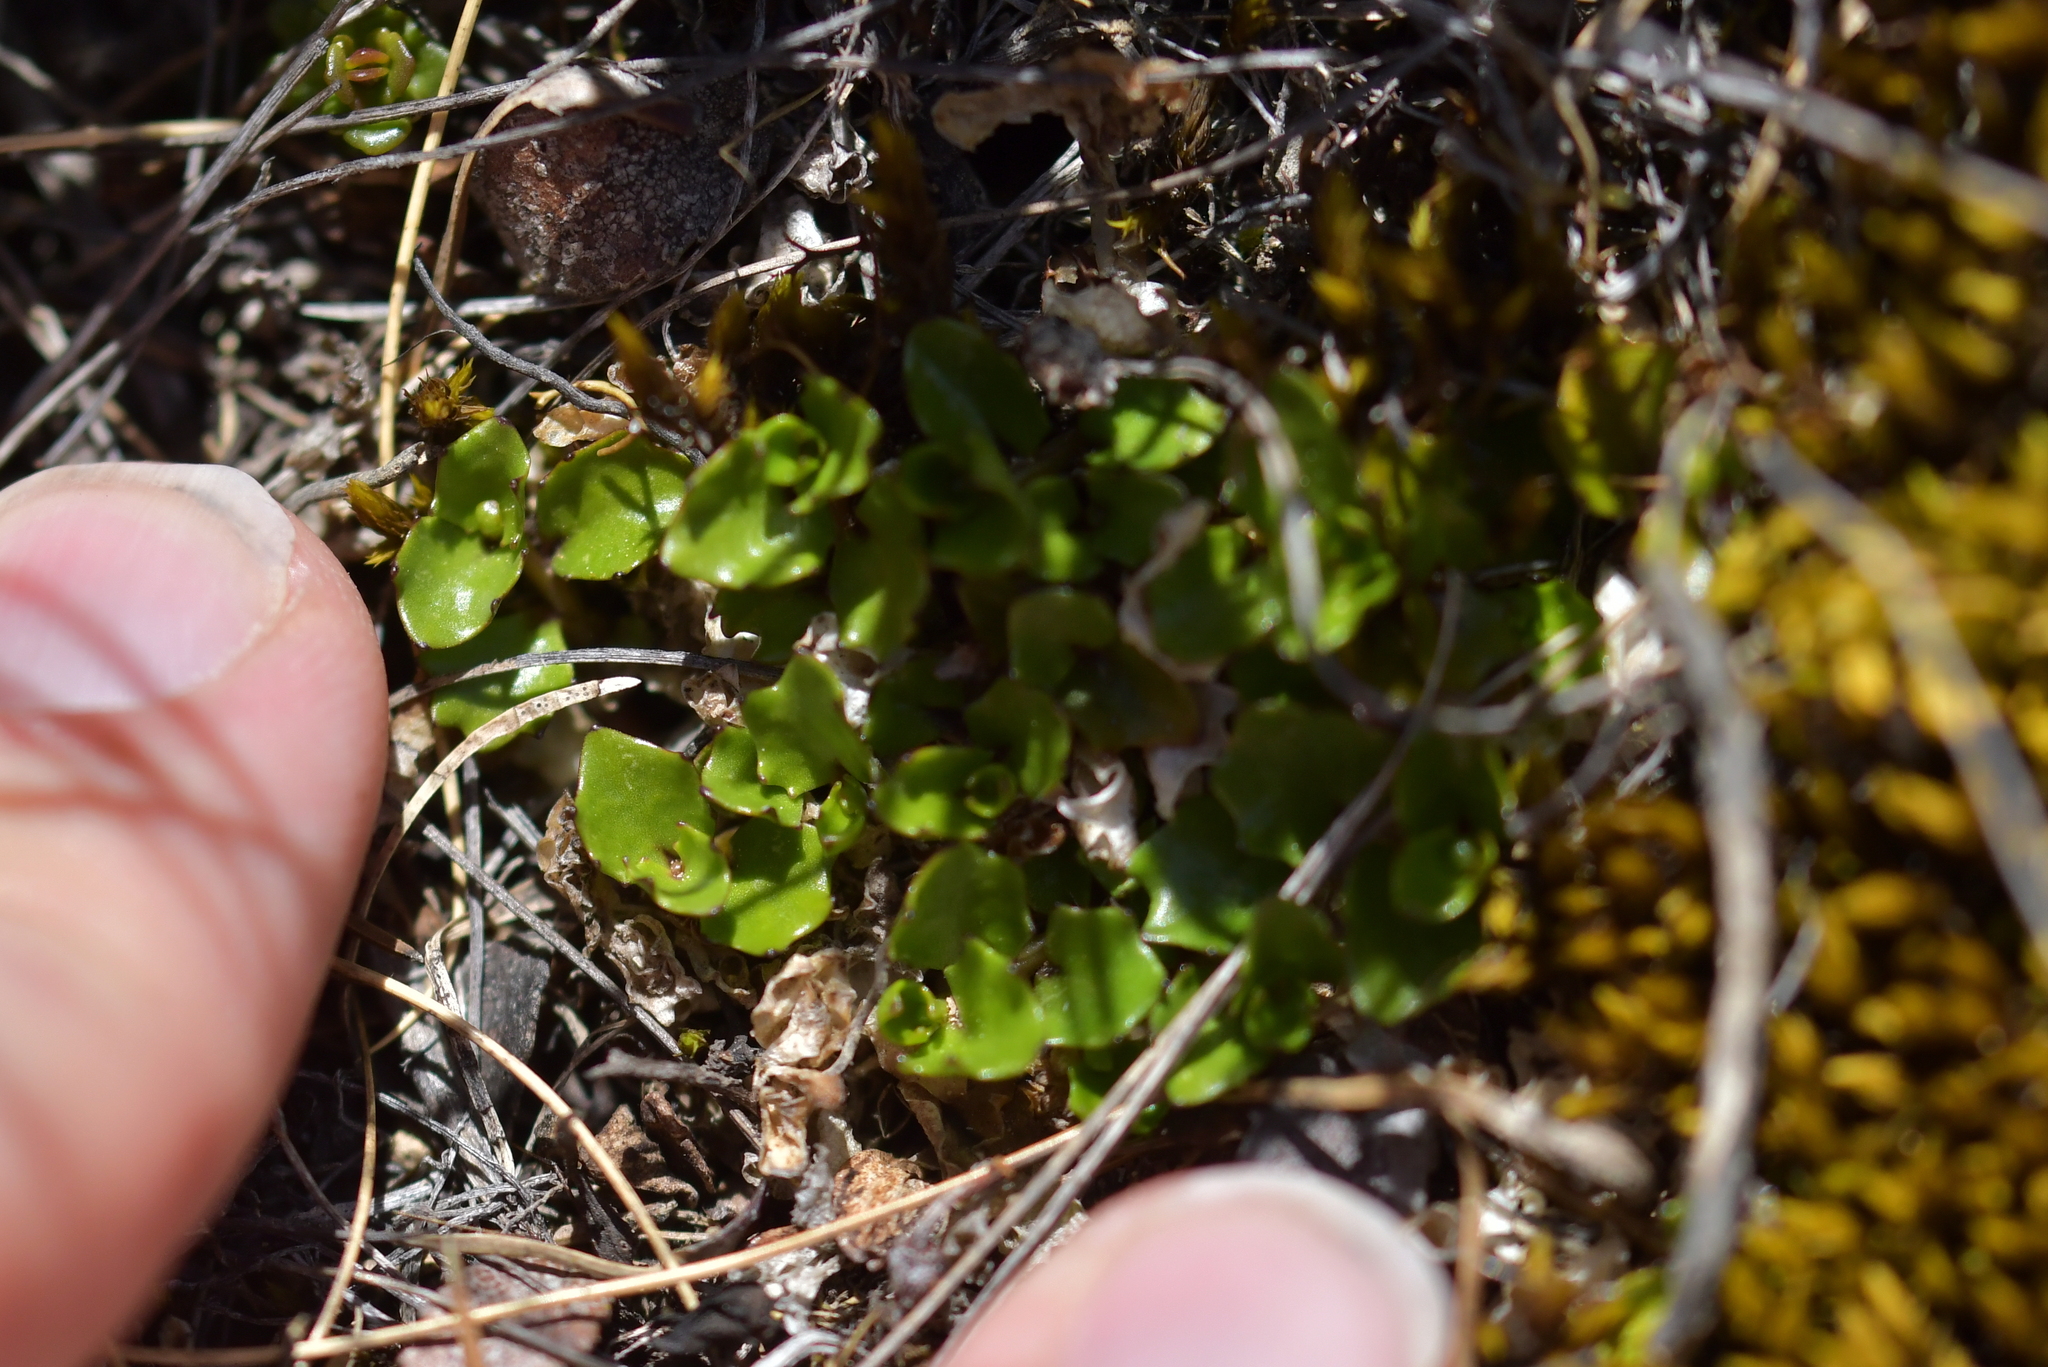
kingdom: Plantae
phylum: Tracheophyta
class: Magnoliopsida
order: Asterales
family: Campanulaceae
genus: Lobelia
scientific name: Lobelia macrodon
